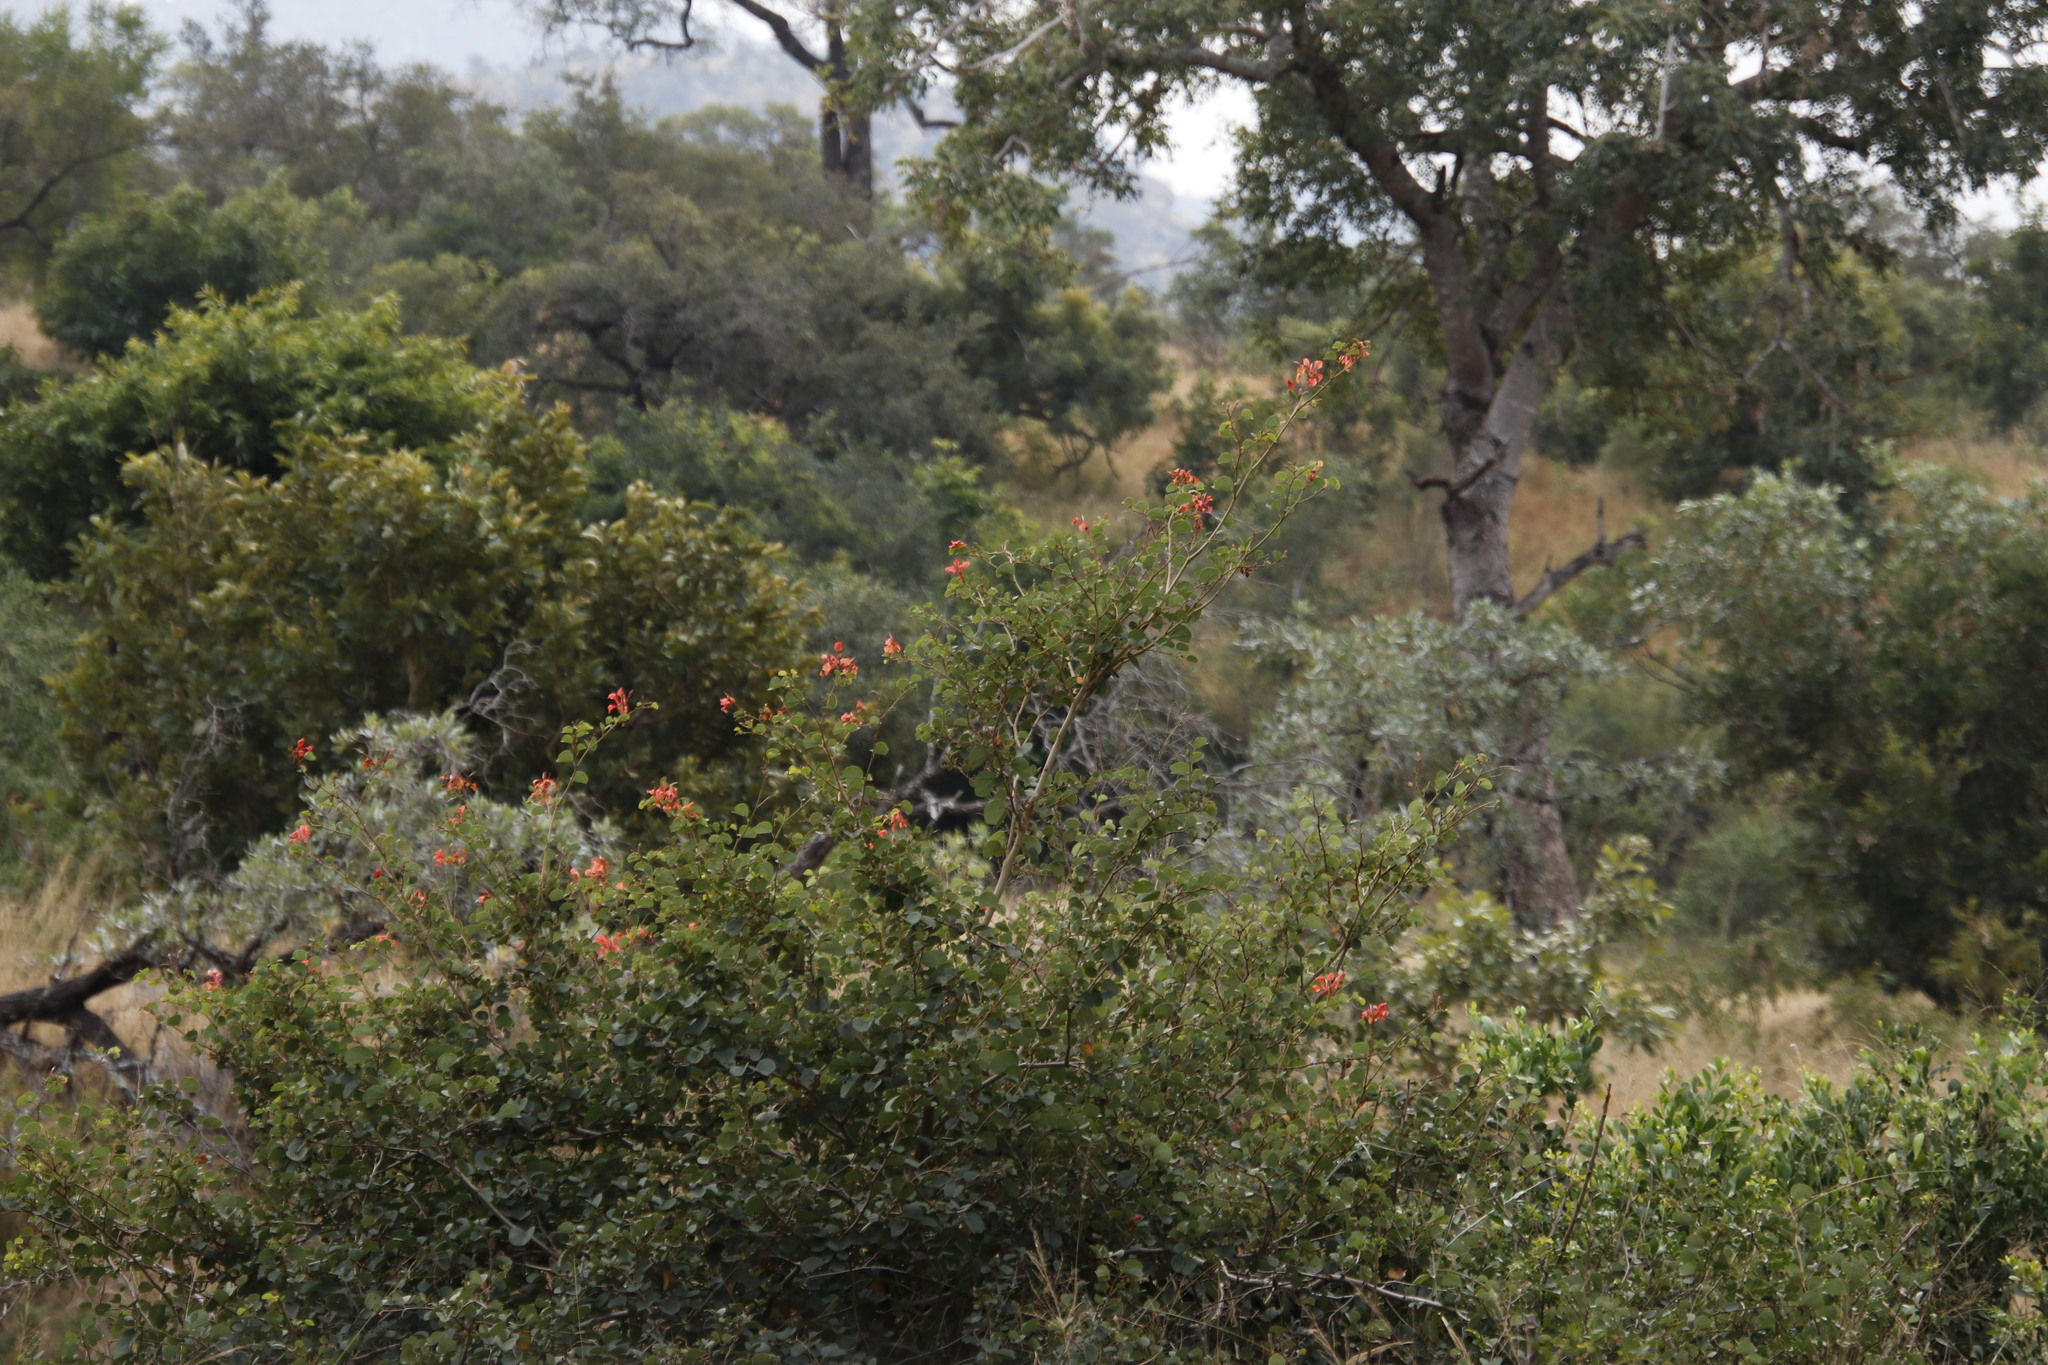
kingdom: Plantae
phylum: Tracheophyta
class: Magnoliopsida
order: Fabales
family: Fabaceae
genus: Bauhinia
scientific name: Bauhinia galpinii
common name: African plume
